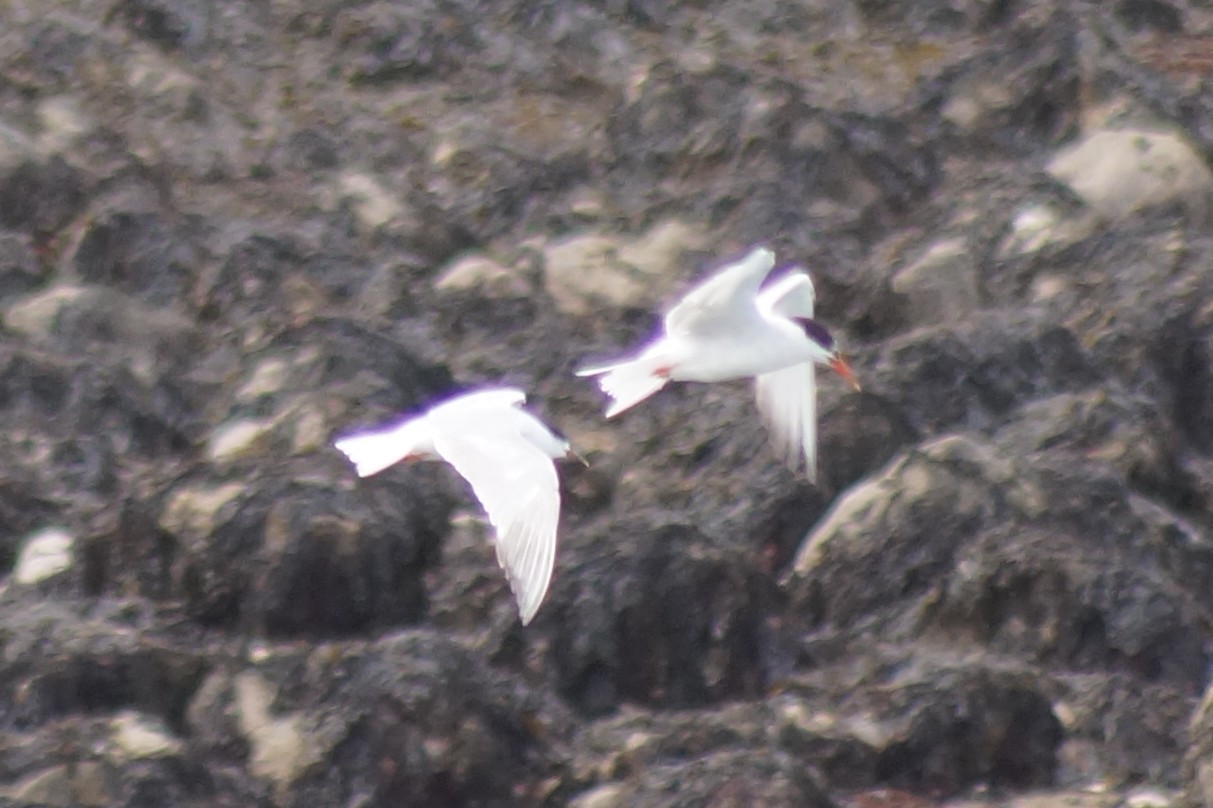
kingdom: Animalia
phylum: Chordata
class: Aves
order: Charadriiformes
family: Laridae
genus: Sterna
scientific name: Sterna hirundo
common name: Common tern
